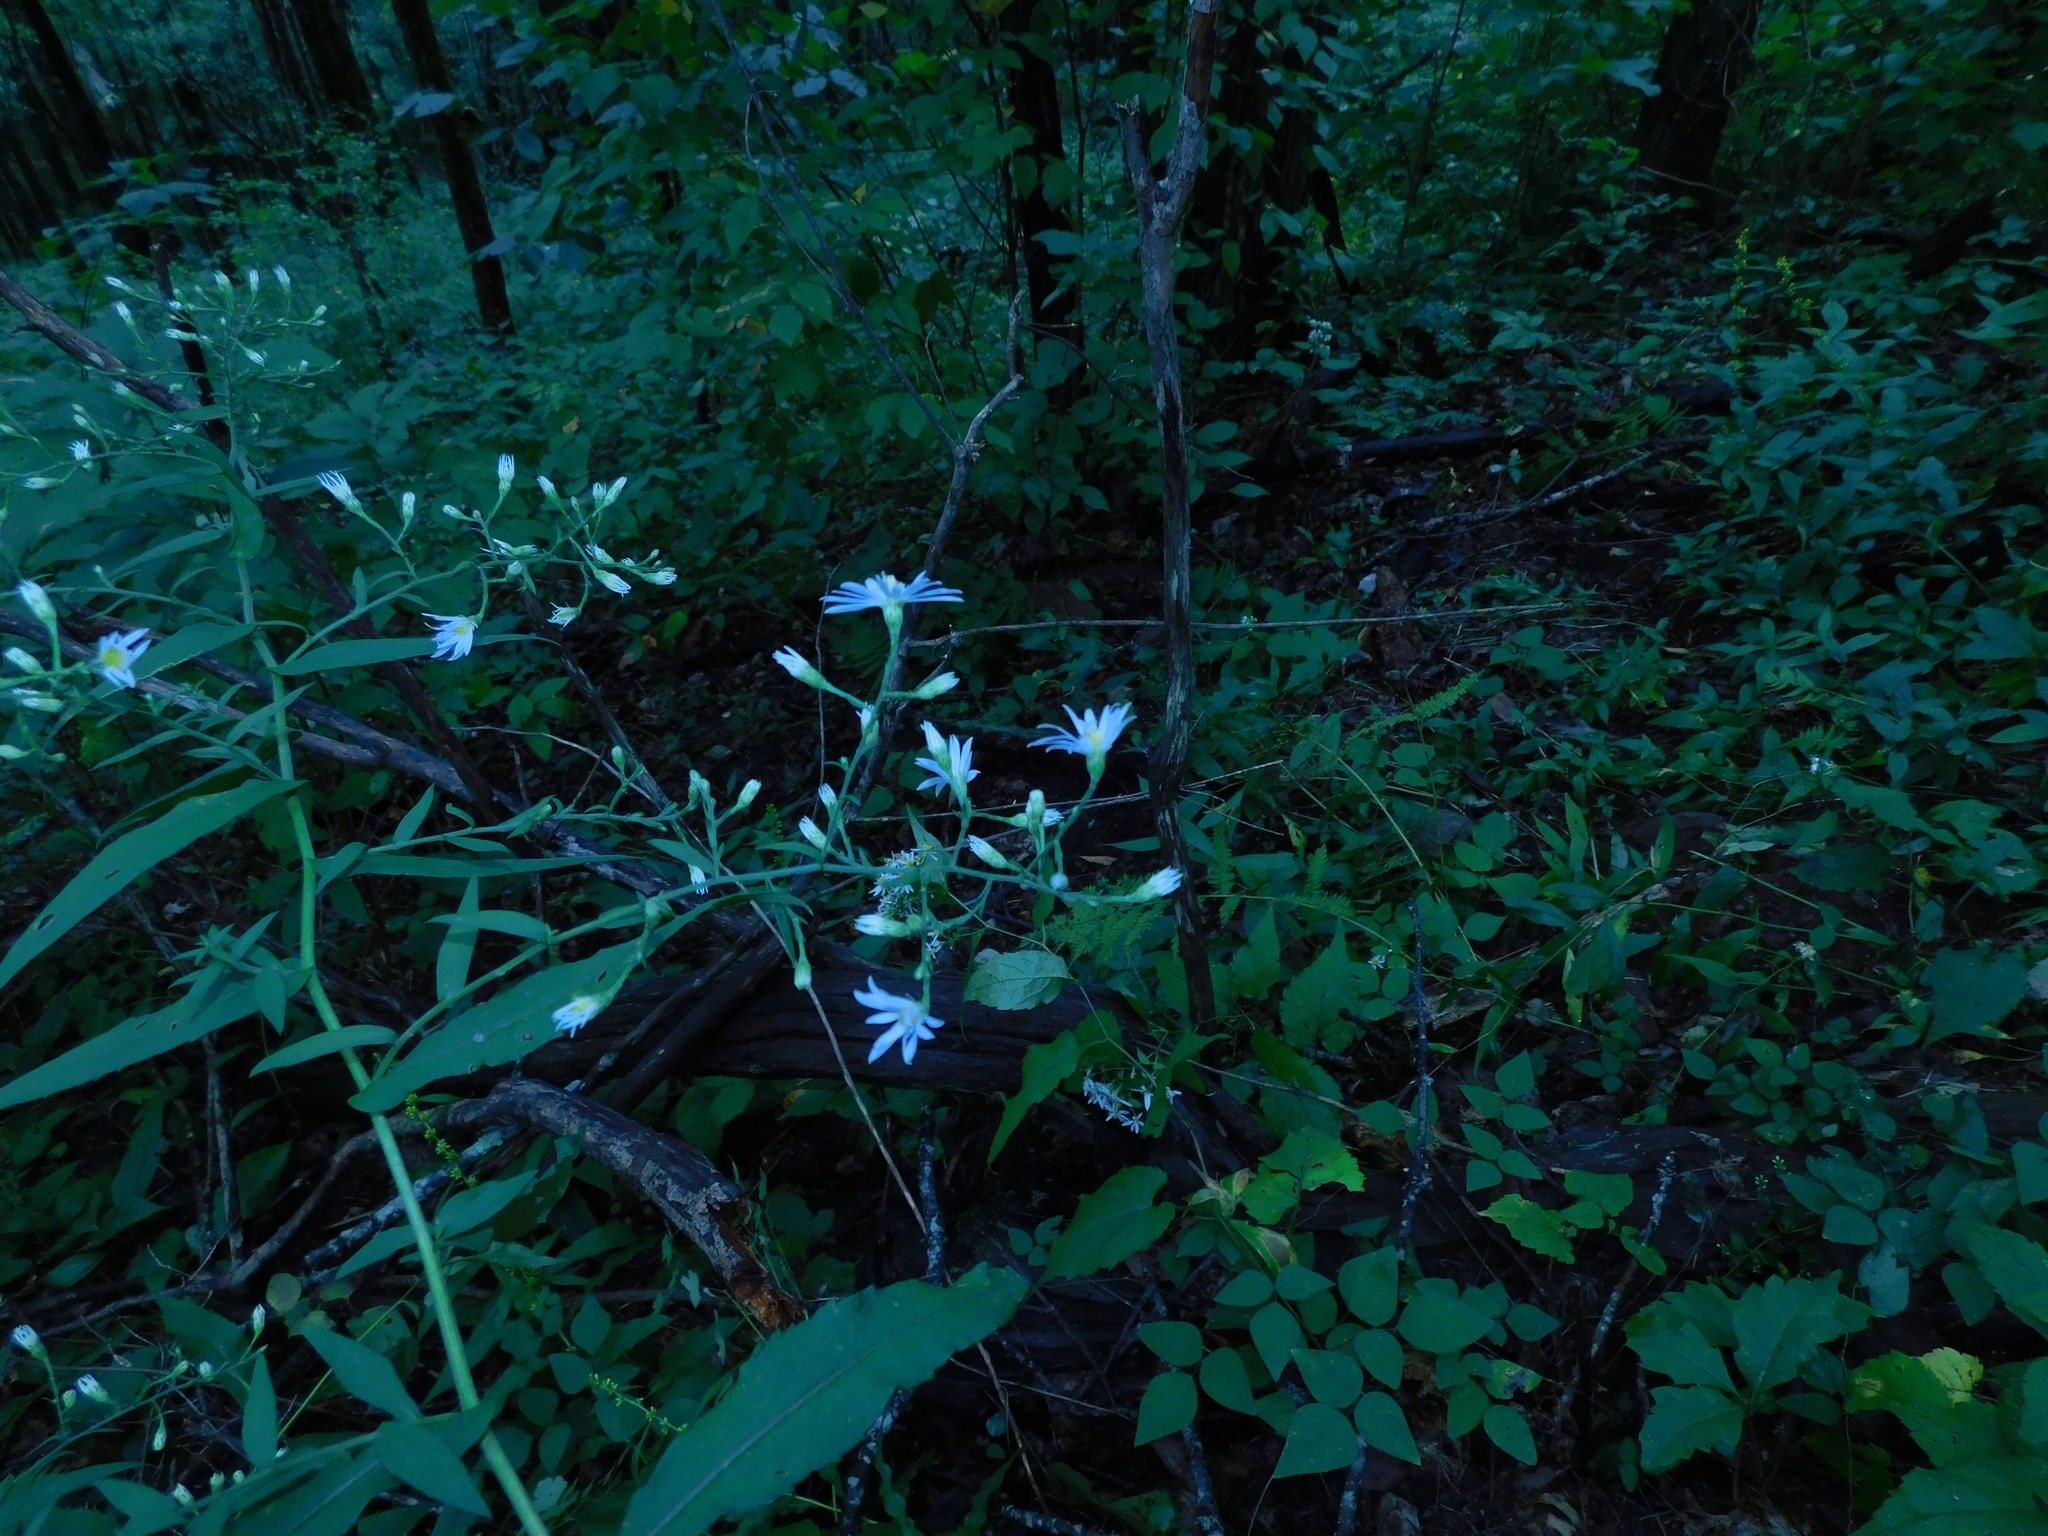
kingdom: Plantae
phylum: Tracheophyta
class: Magnoliopsida
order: Asterales
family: Asteraceae
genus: Symphyotrichum
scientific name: Symphyotrichum undulatum
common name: Clasping heart-leaf aster
